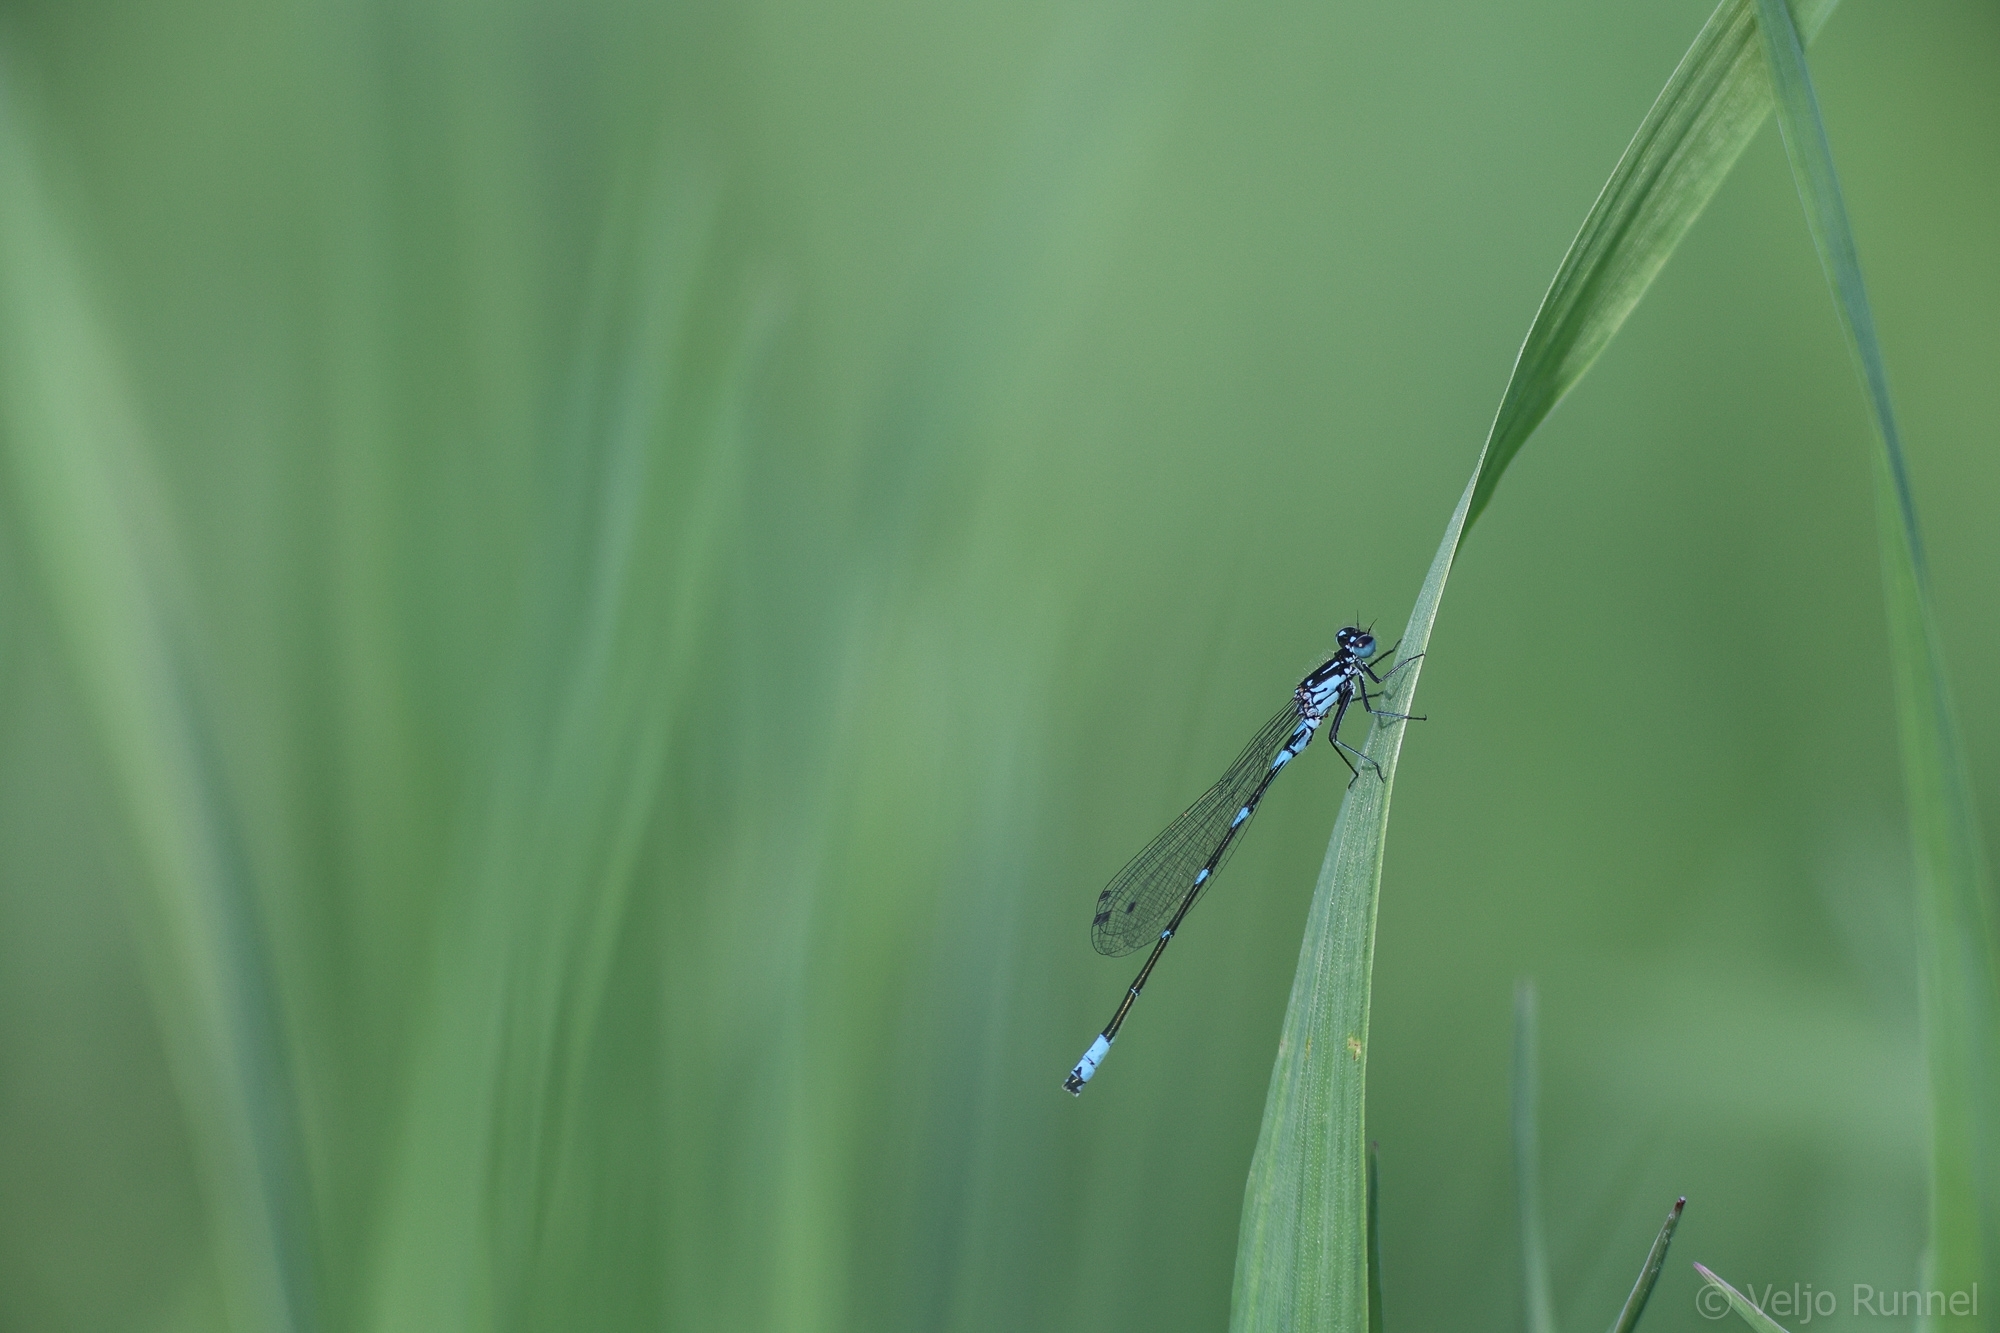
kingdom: Animalia
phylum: Arthropoda
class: Insecta
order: Odonata
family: Coenagrionidae
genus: Coenagrion
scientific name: Coenagrion pulchellum
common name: Variable bluet
